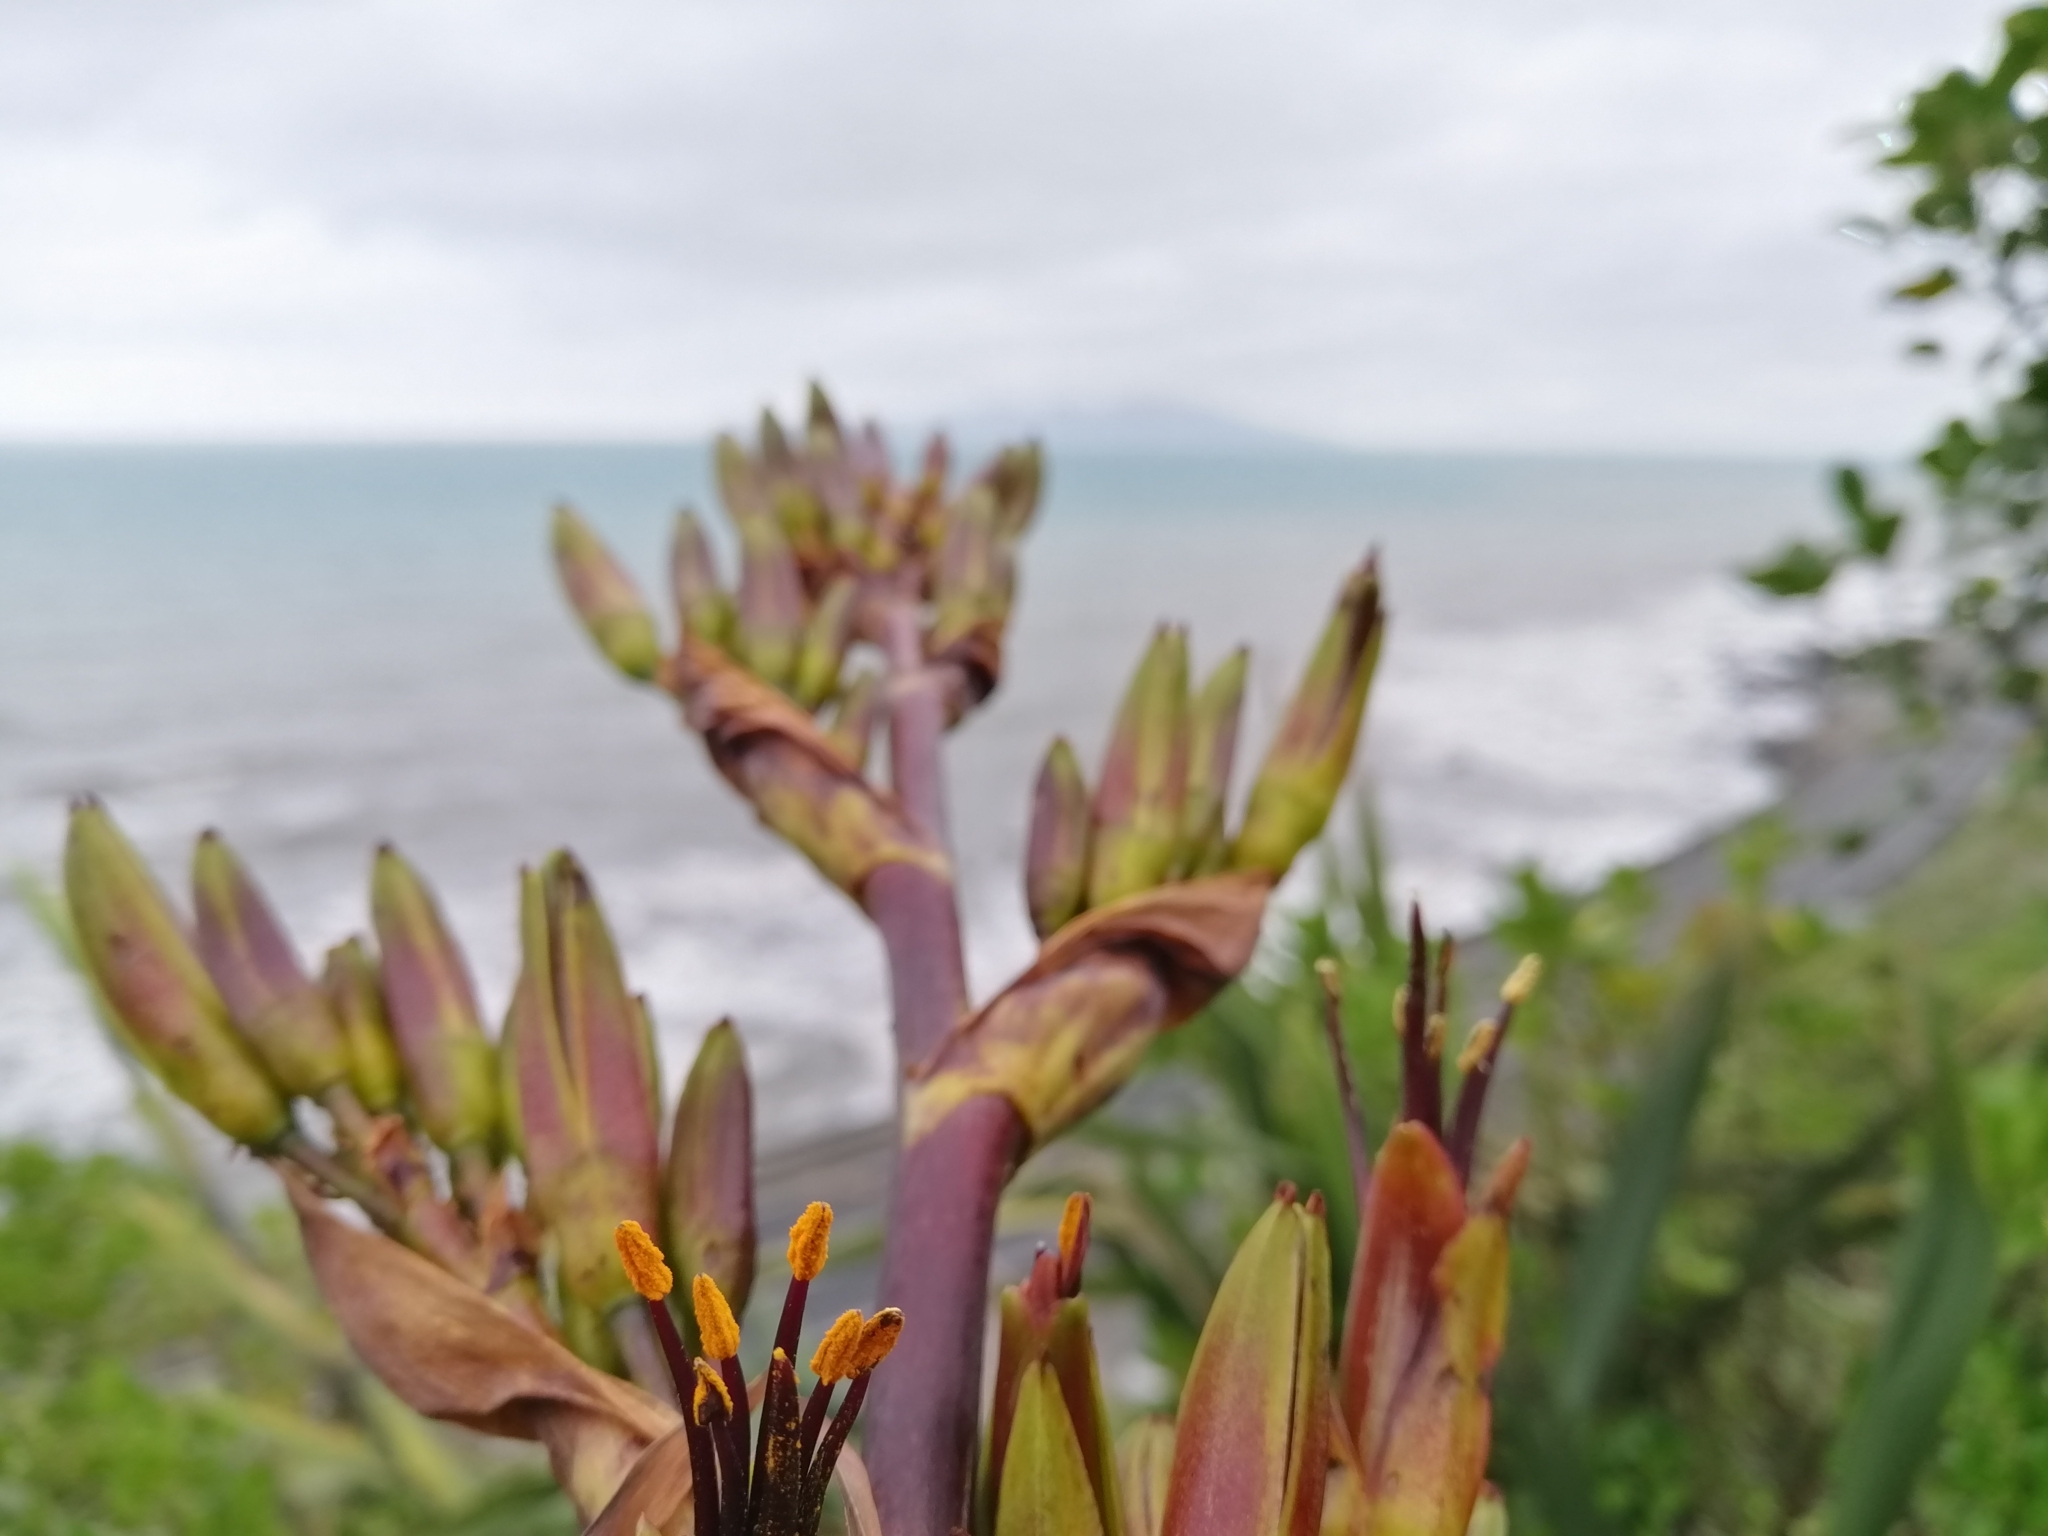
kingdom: Plantae
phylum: Tracheophyta
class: Liliopsida
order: Asparagales
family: Asphodelaceae
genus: Phormium
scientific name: Phormium colensoi
